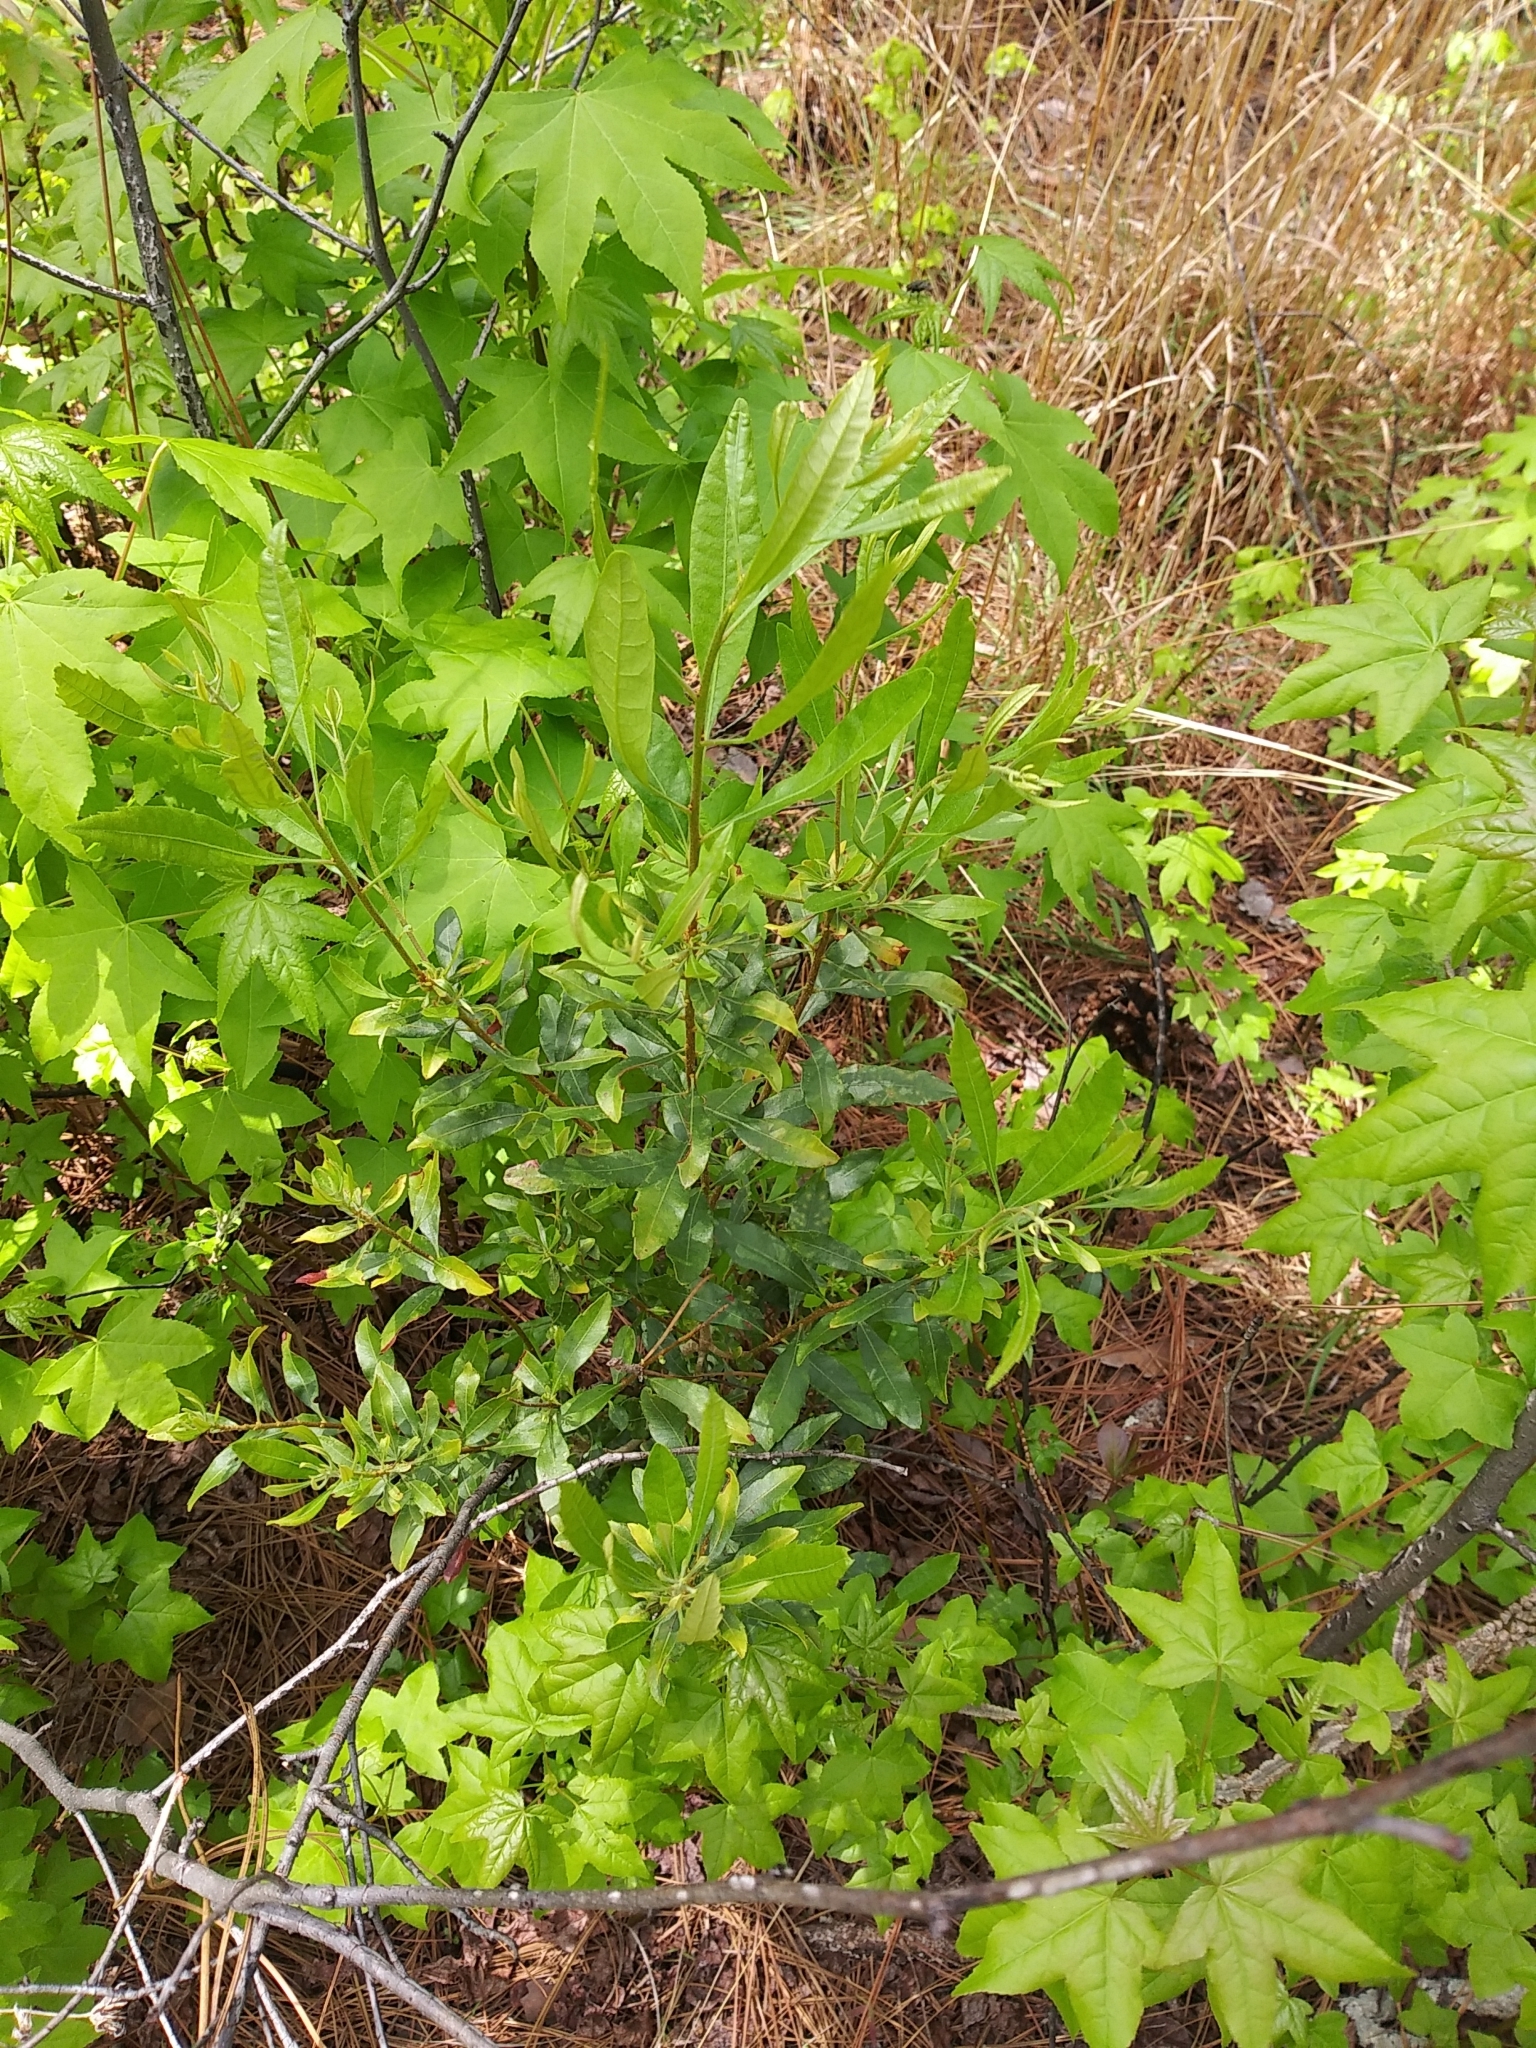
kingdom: Plantae
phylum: Tracheophyta
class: Magnoliopsida
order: Fagales
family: Myricaceae
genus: Morella
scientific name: Morella cerifera
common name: Wax myrtle
